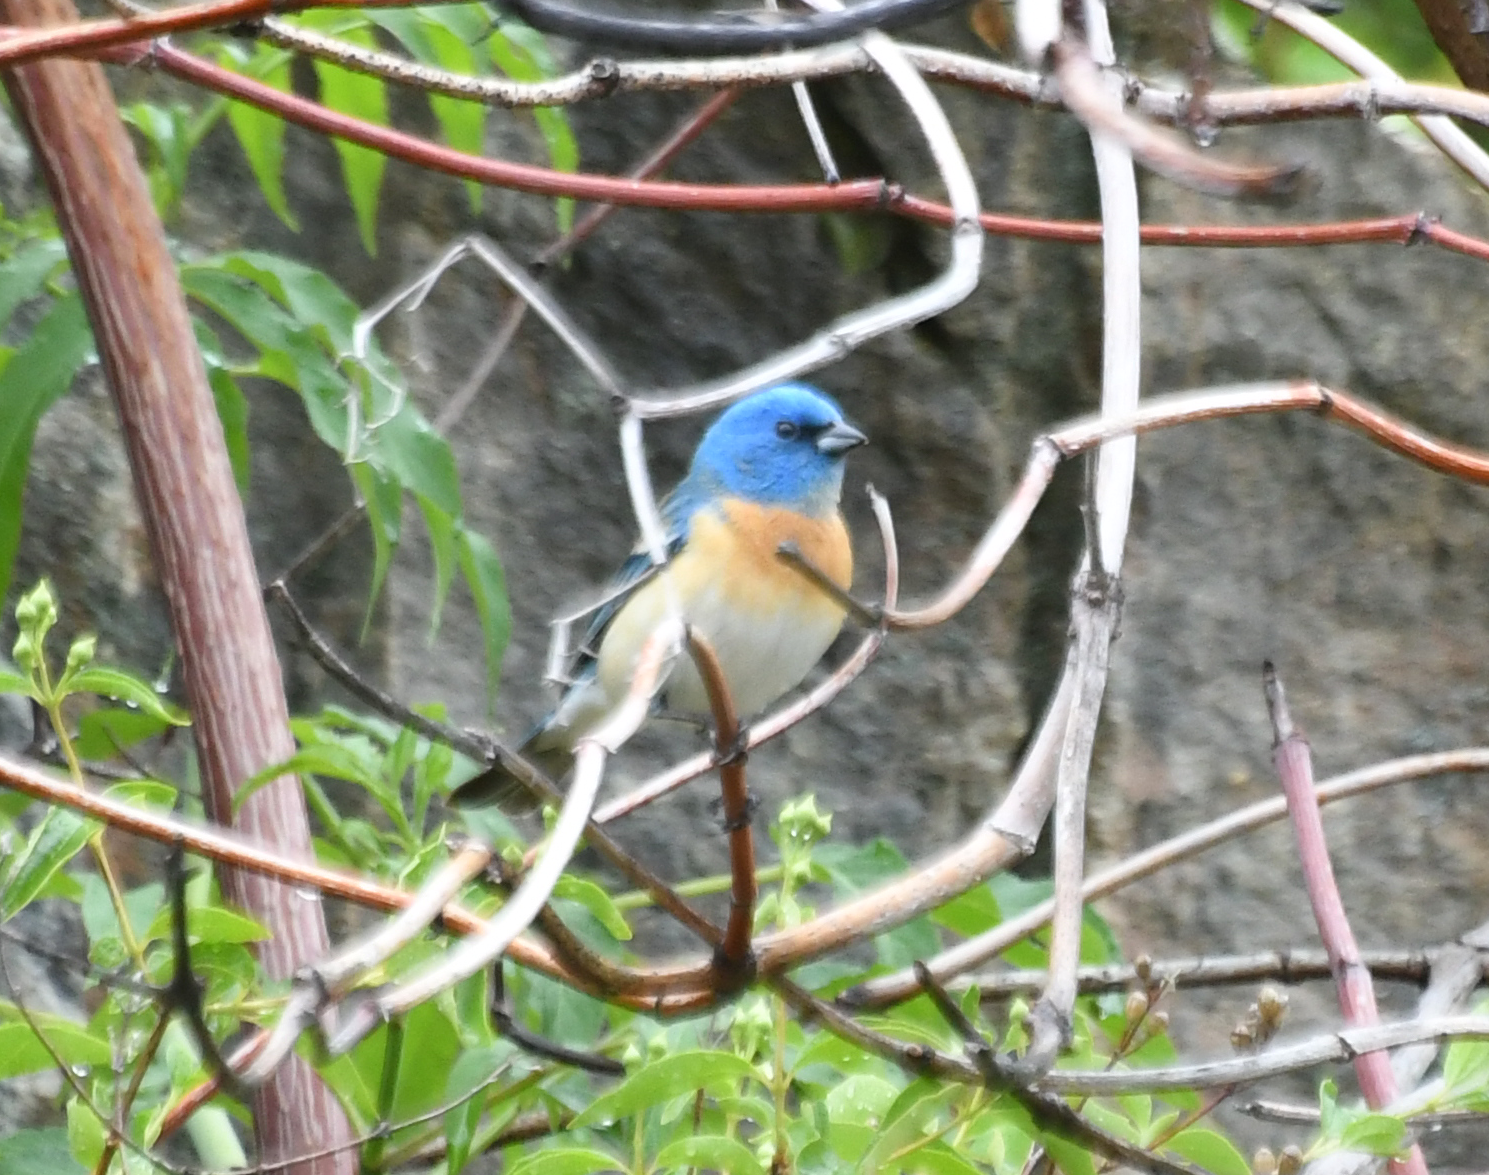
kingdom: Animalia
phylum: Chordata
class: Aves
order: Passeriformes
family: Cardinalidae
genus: Passerina
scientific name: Passerina amoena
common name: Lazuli bunting
